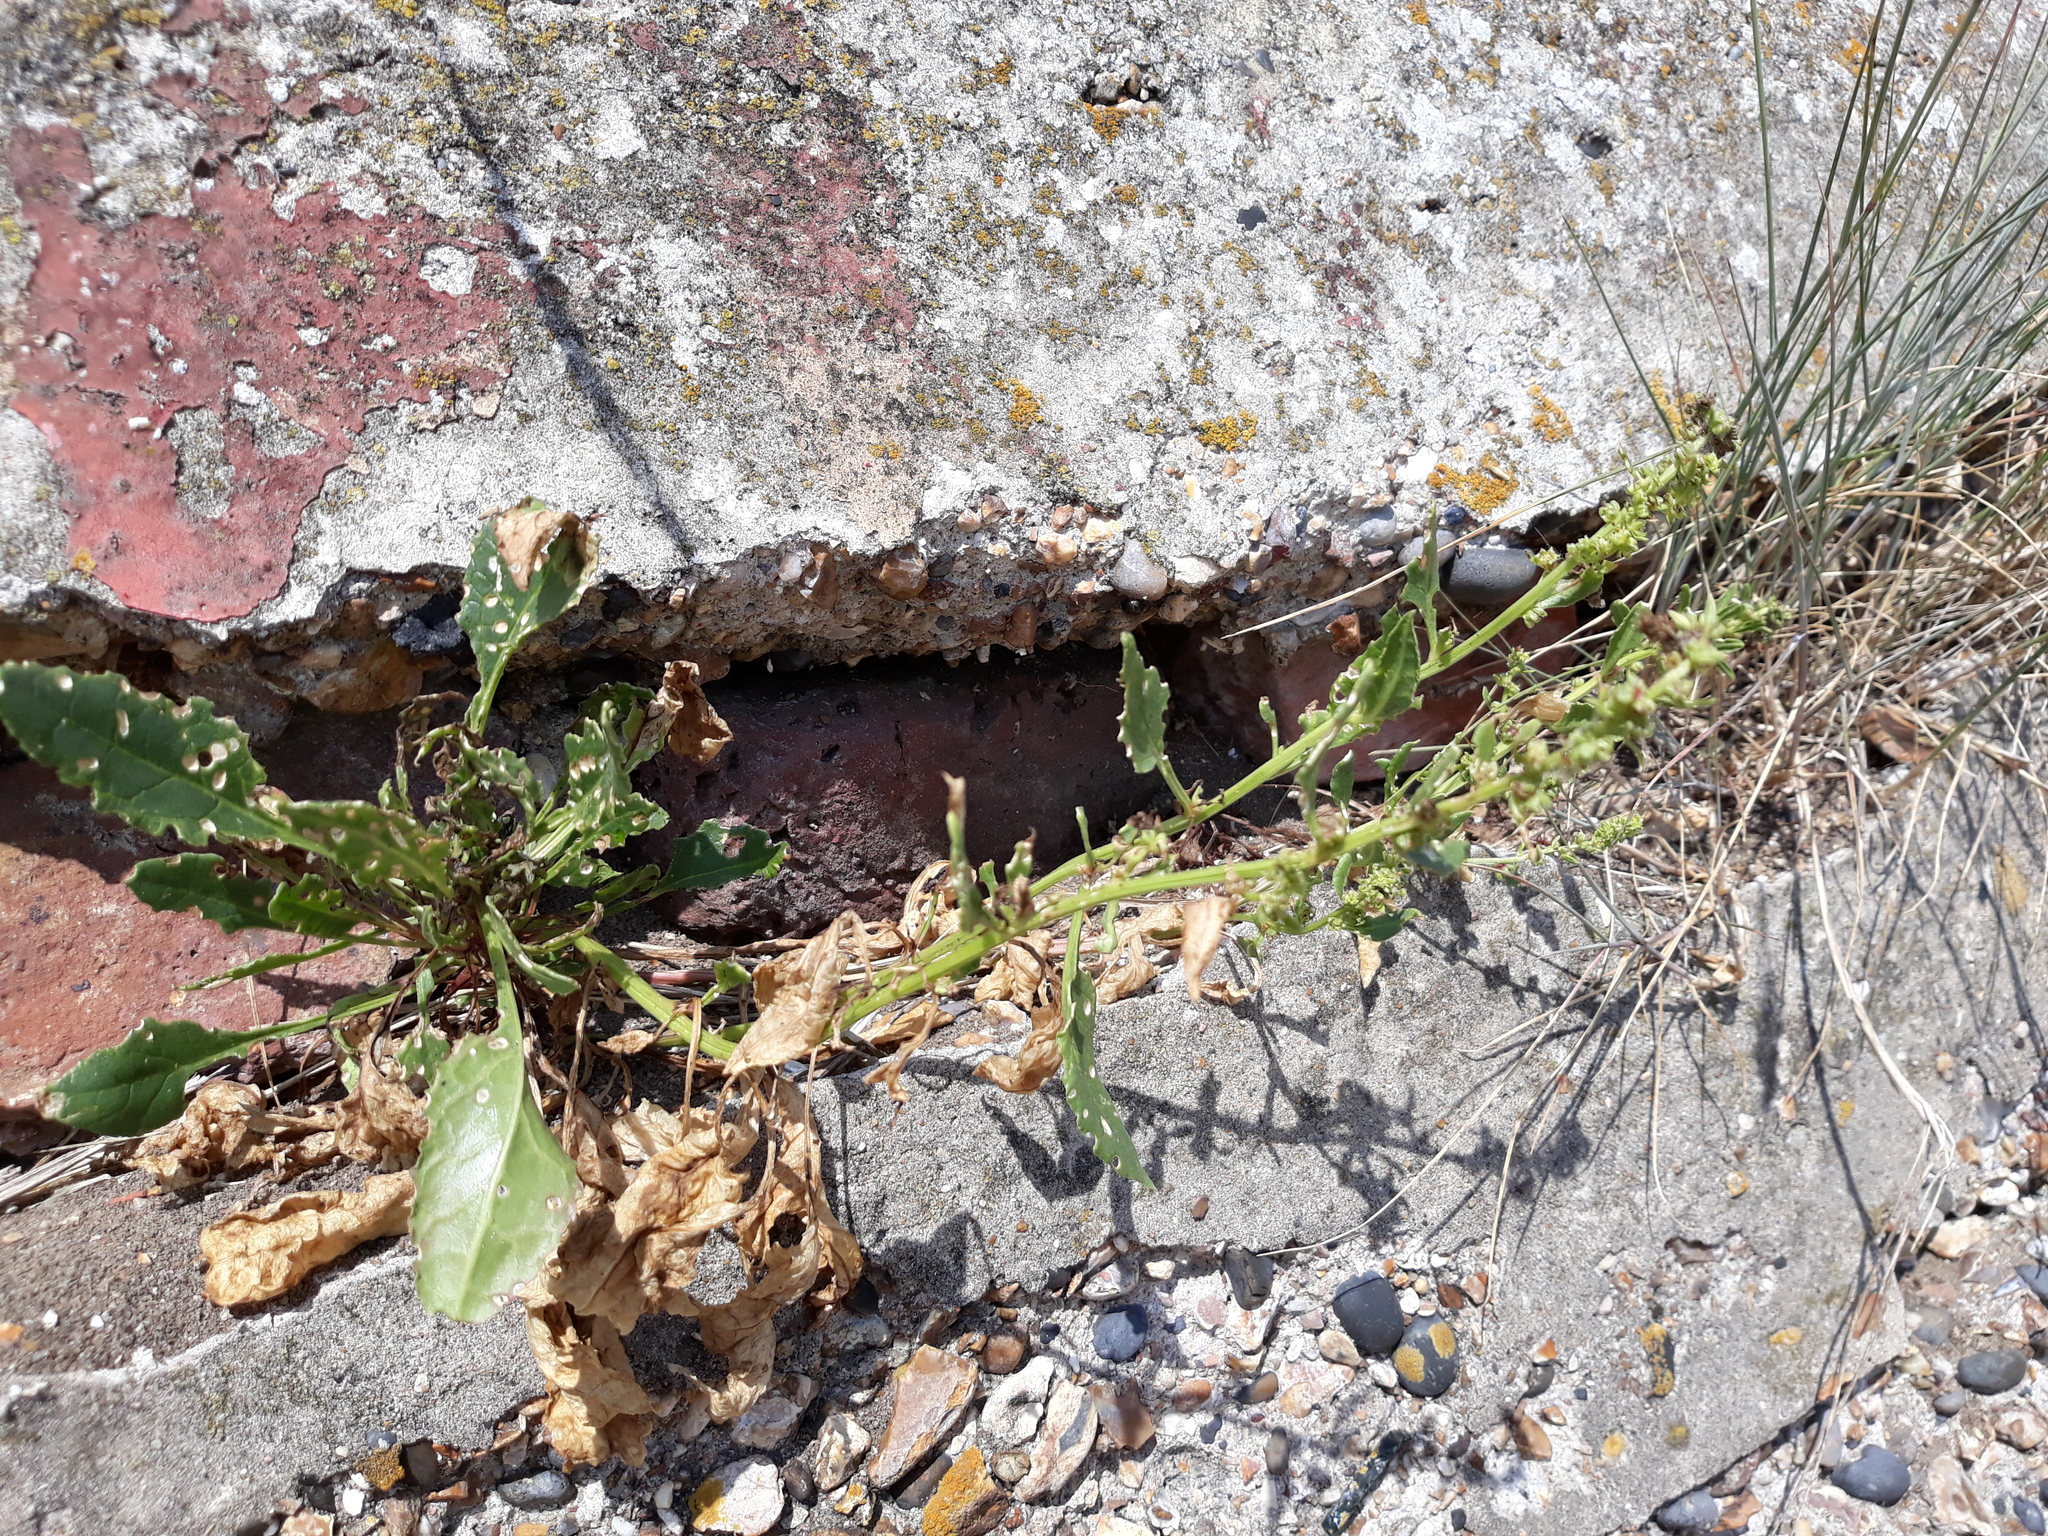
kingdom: Plantae
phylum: Tracheophyta
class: Magnoliopsida
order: Caryophyllales
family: Amaranthaceae
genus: Beta
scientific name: Beta vulgaris
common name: Beet
